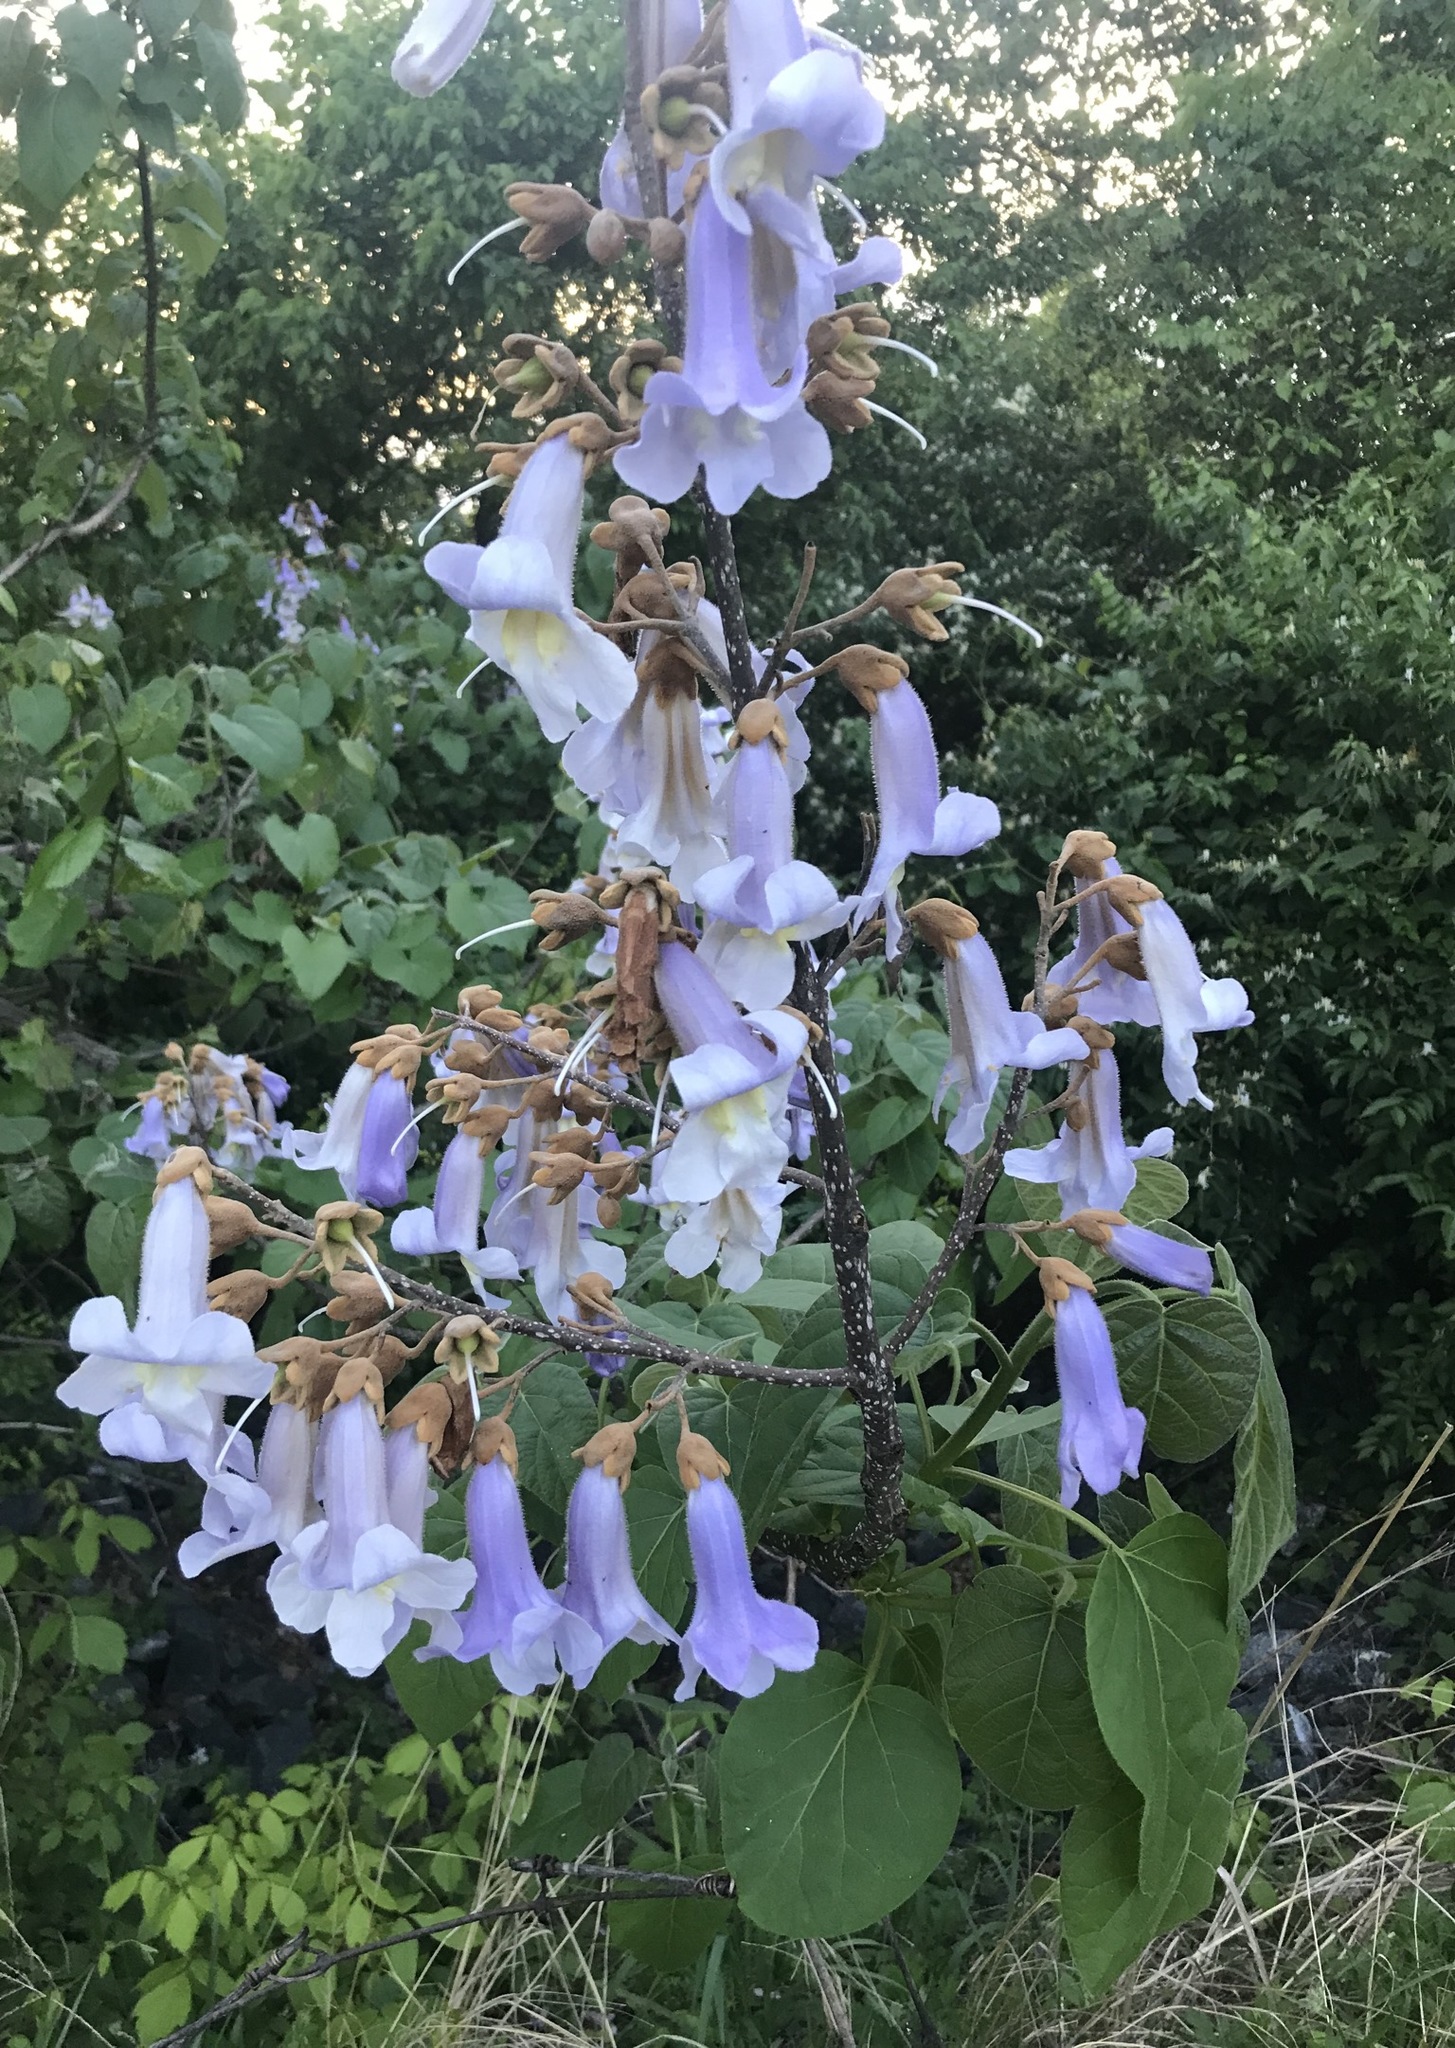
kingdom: Plantae
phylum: Tracheophyta
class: Magnoliopsida
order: Lamiales
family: Paulowniaceae
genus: Paulownia
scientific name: Paulownia tomentosa
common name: Foxglove-tree
